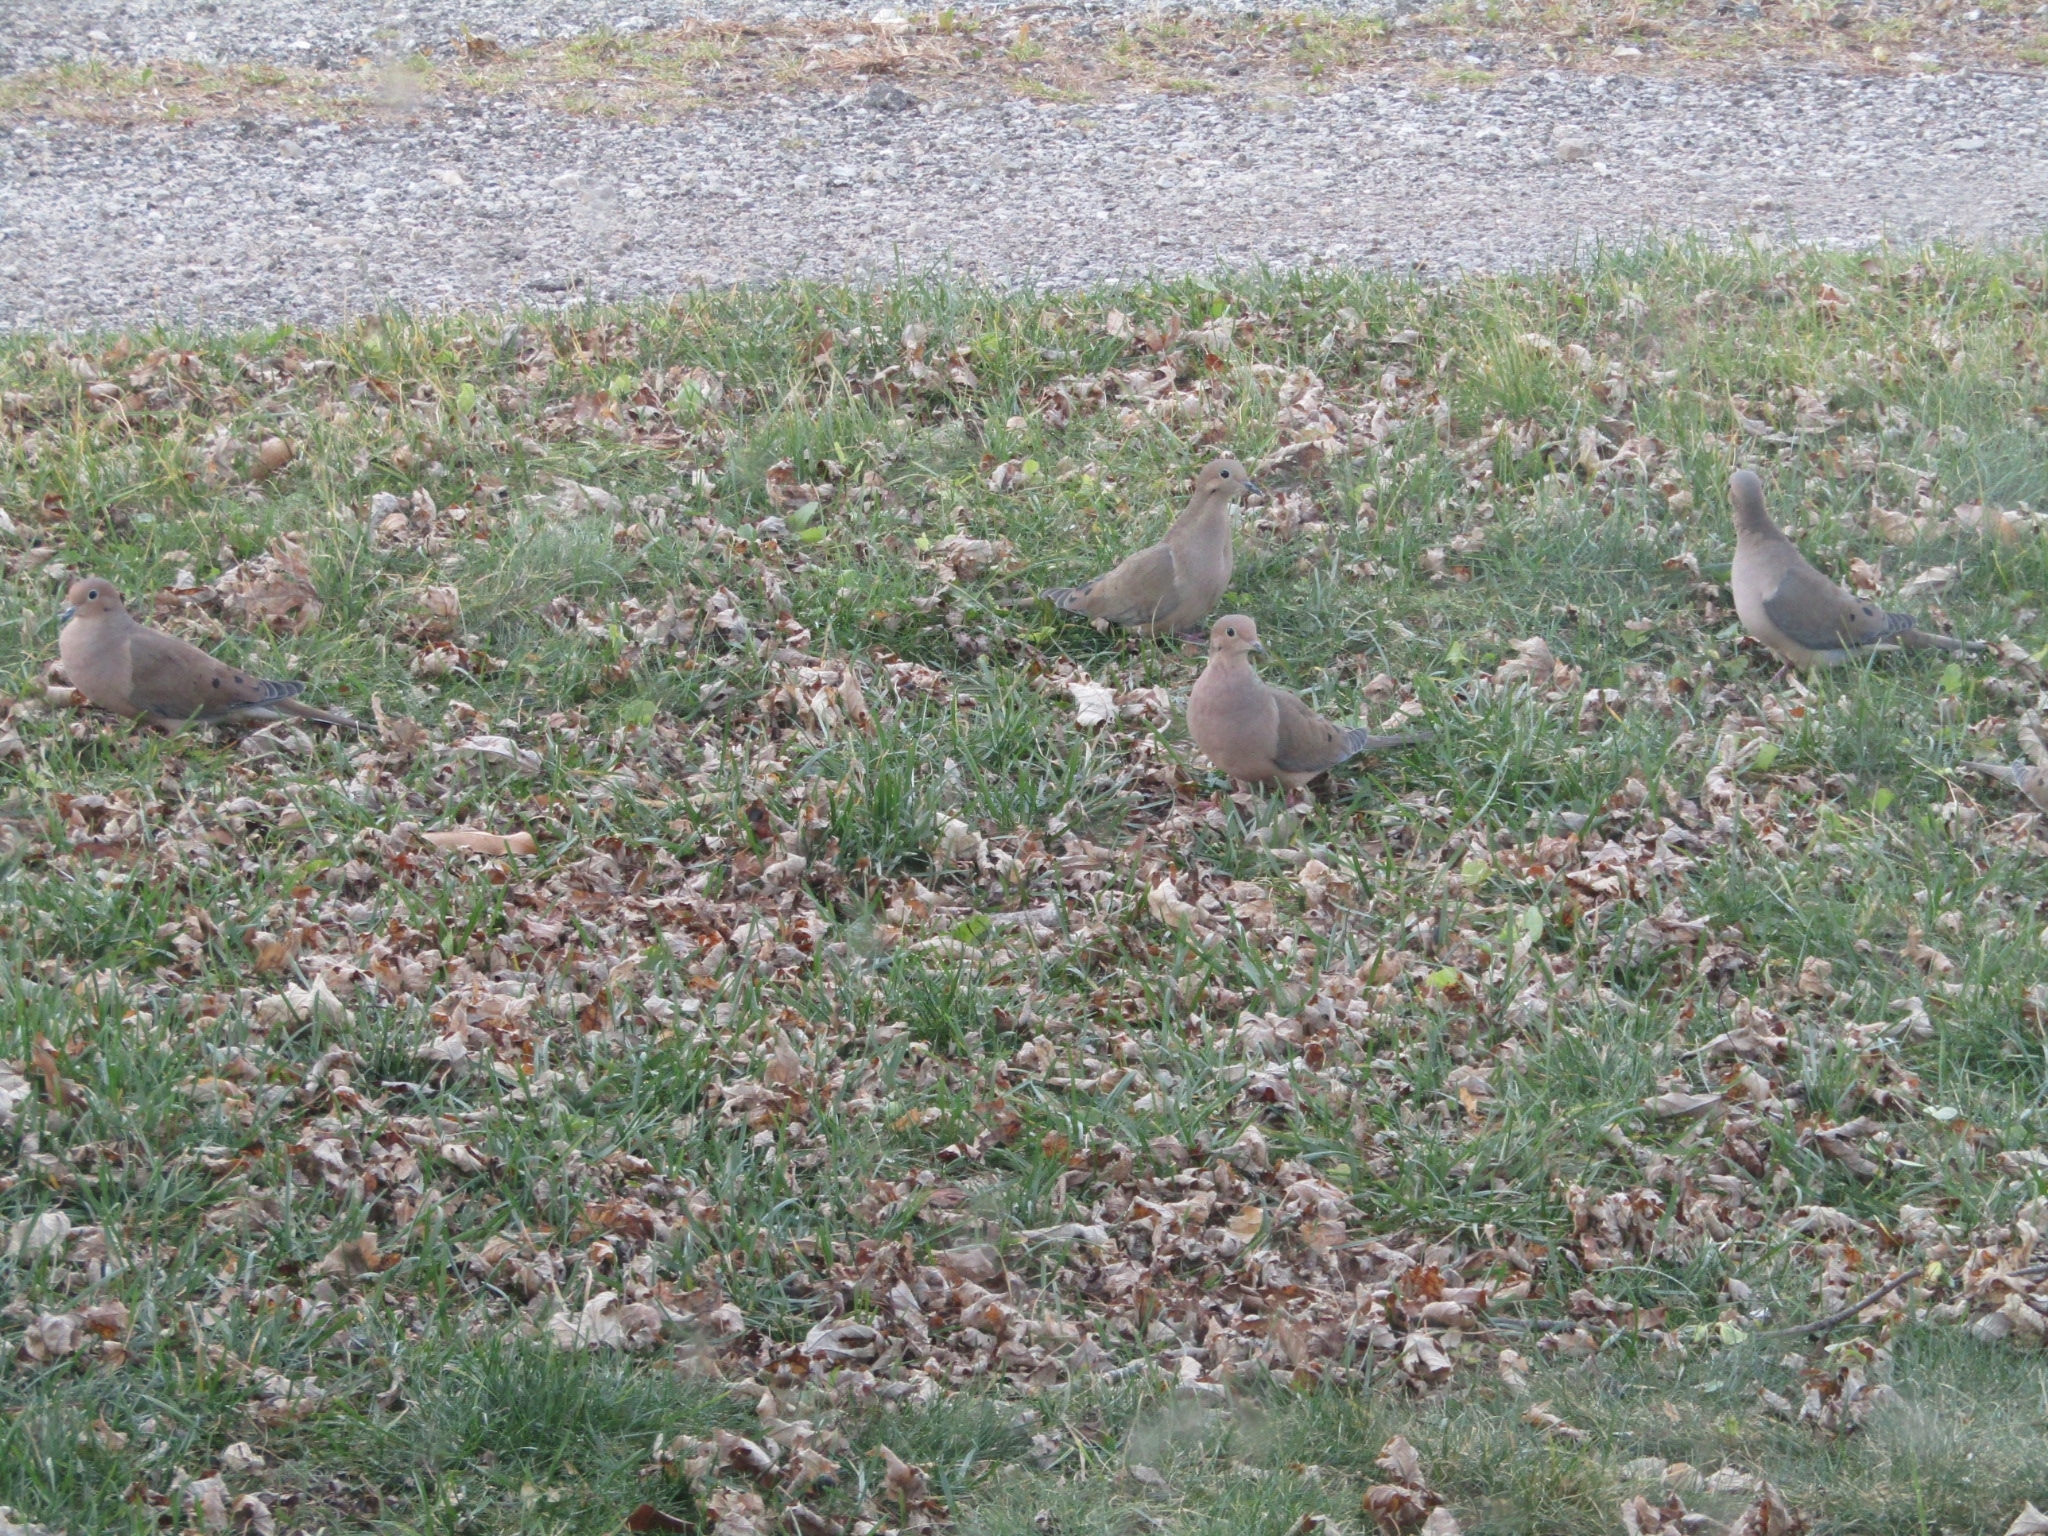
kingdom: Animalia
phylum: Chordata
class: Aves
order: Columbiformes
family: Columbidae
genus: Zenaida
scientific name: Zenaida macroura
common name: Mourning dove
